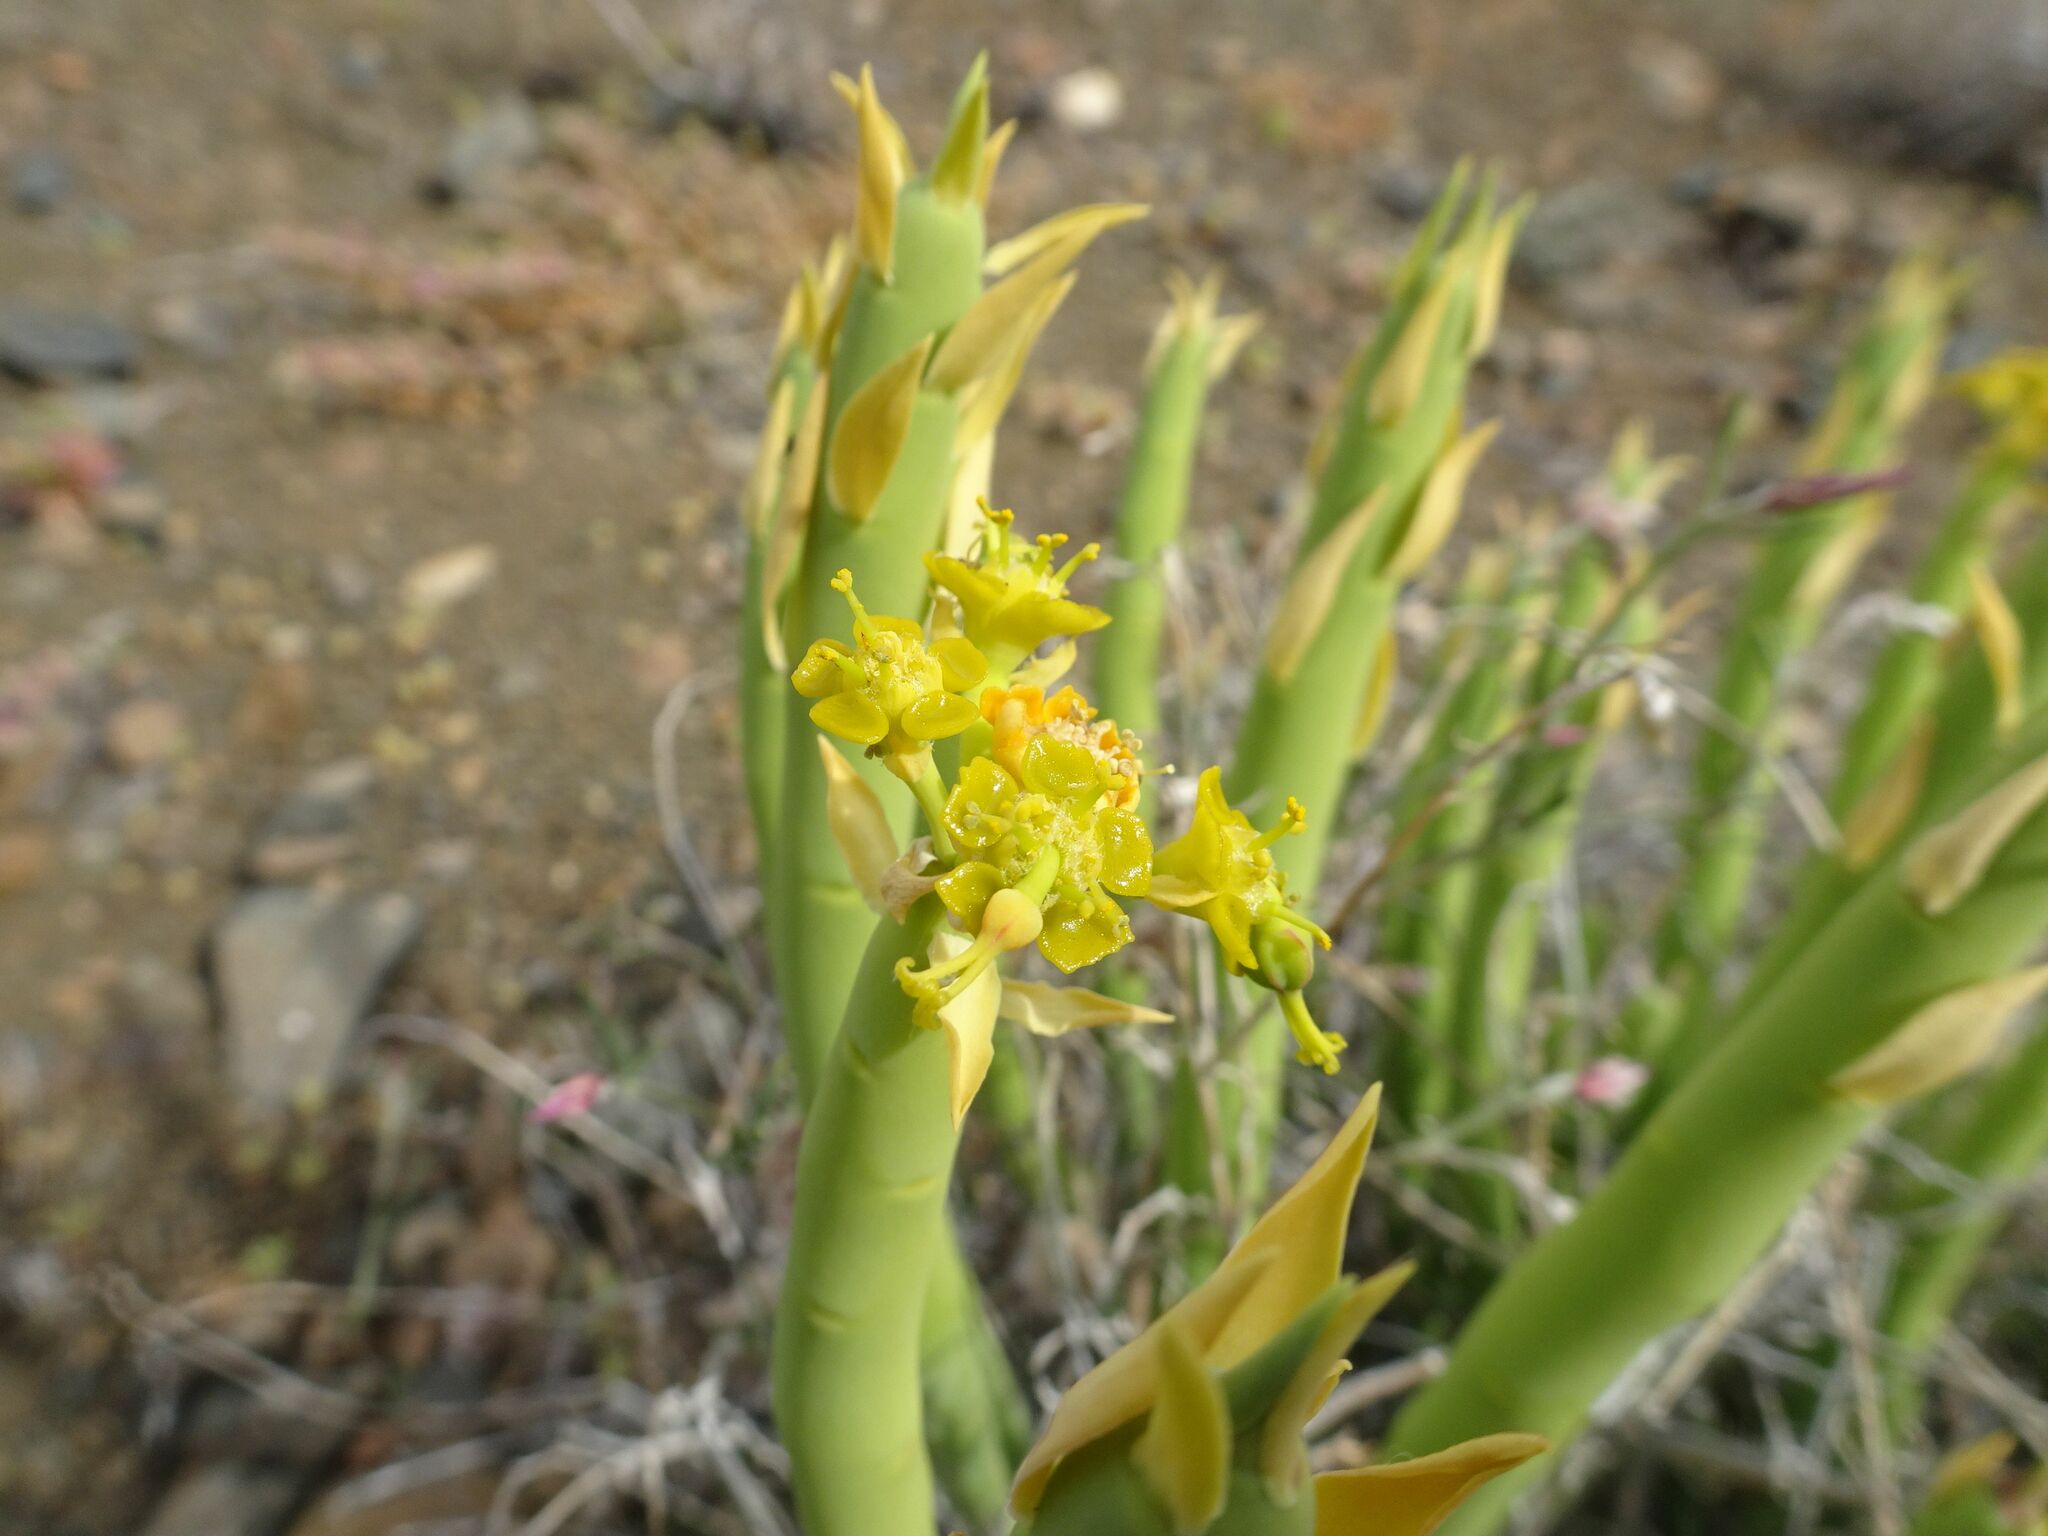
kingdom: Plantae
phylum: Tracheophyta
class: Magnoliopsida
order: Malpighiales
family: Euphorbiaceae
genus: Euphorbia
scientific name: Euphorbia mauritanica
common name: Jackal's-food
